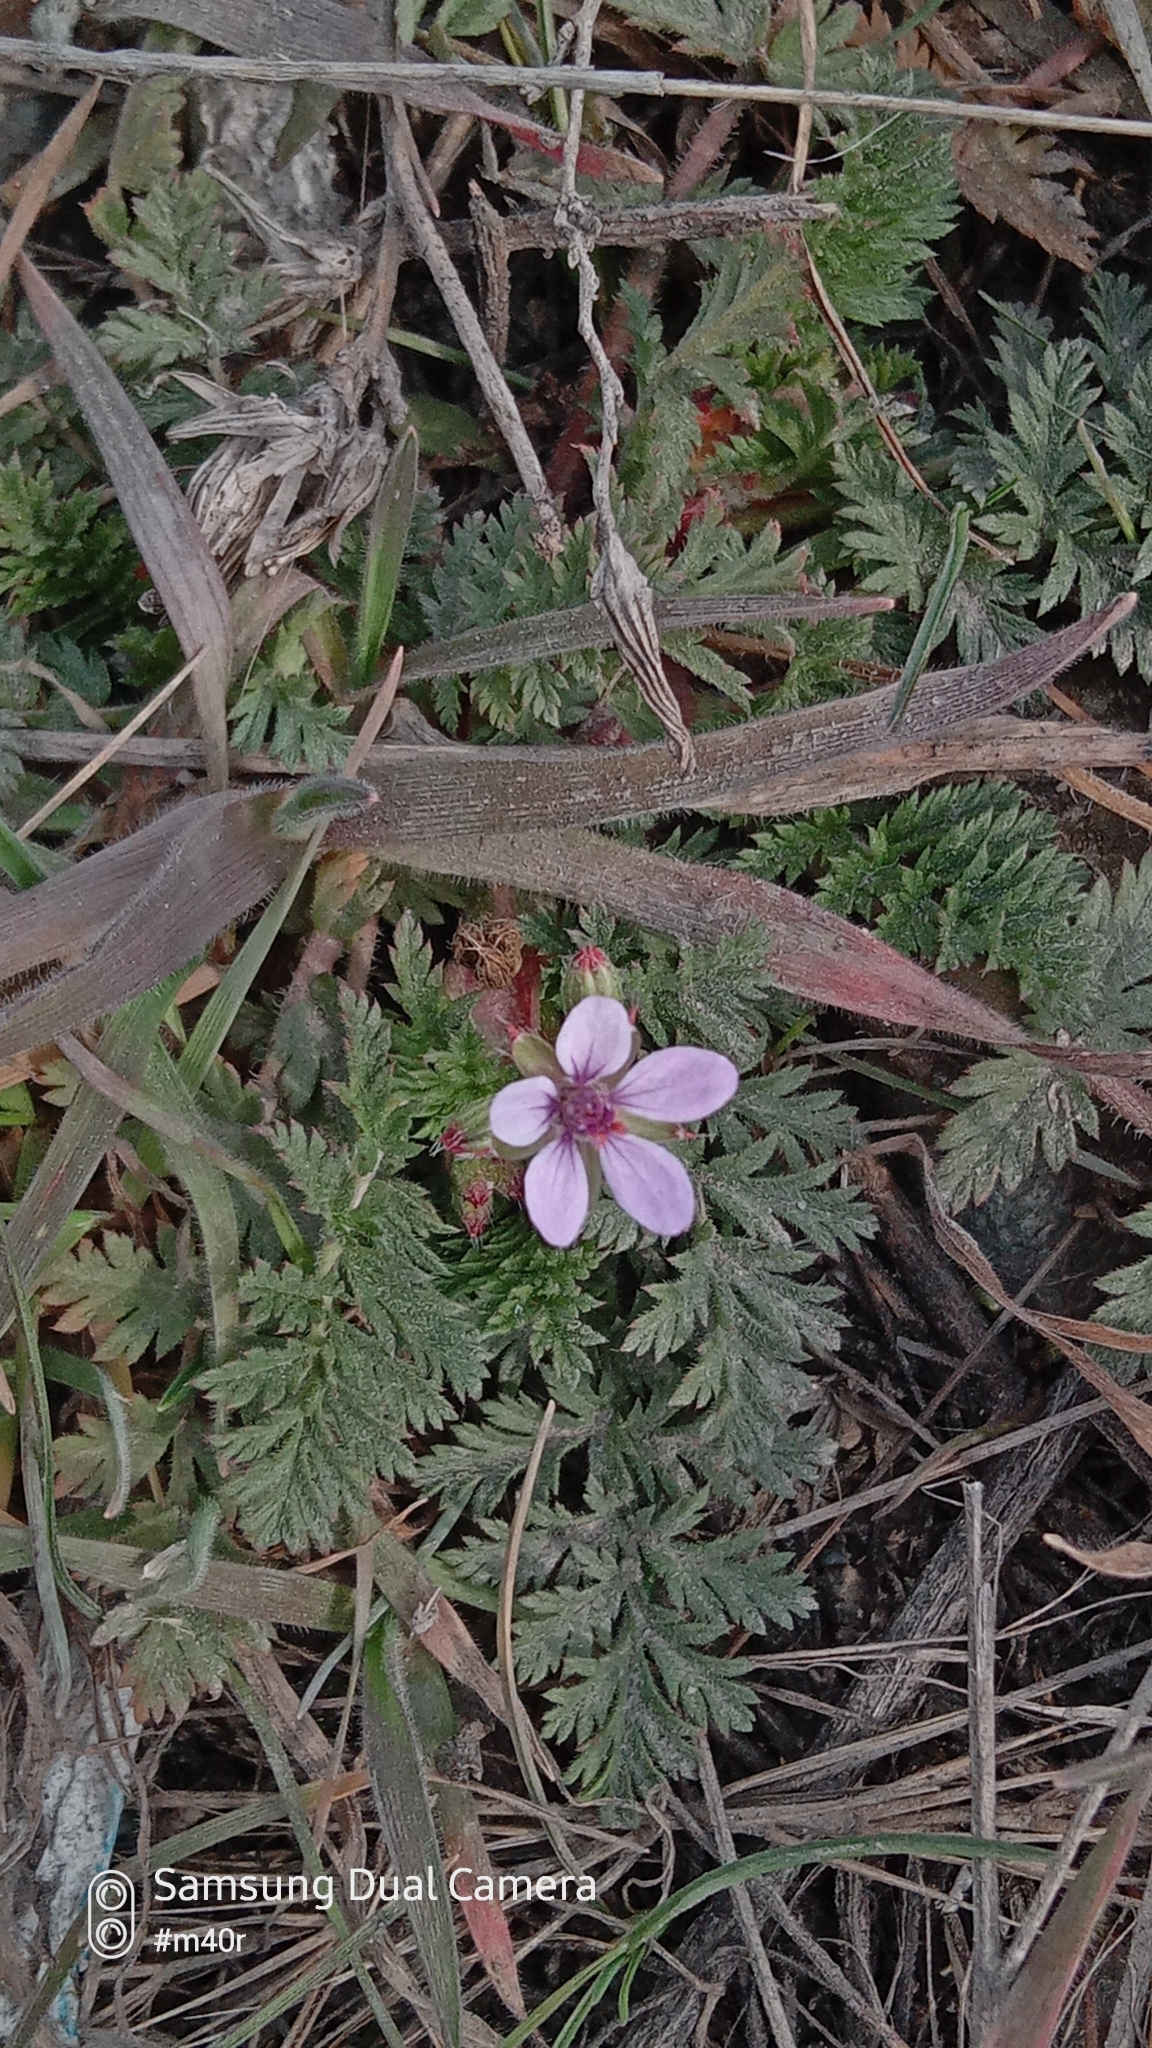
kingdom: Plantae
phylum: Tracheophyta
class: Magnoliopsida
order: Geraniales
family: Geraniaceae
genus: Erodium
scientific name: Erodium cicutarium
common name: Common stork's-bill
